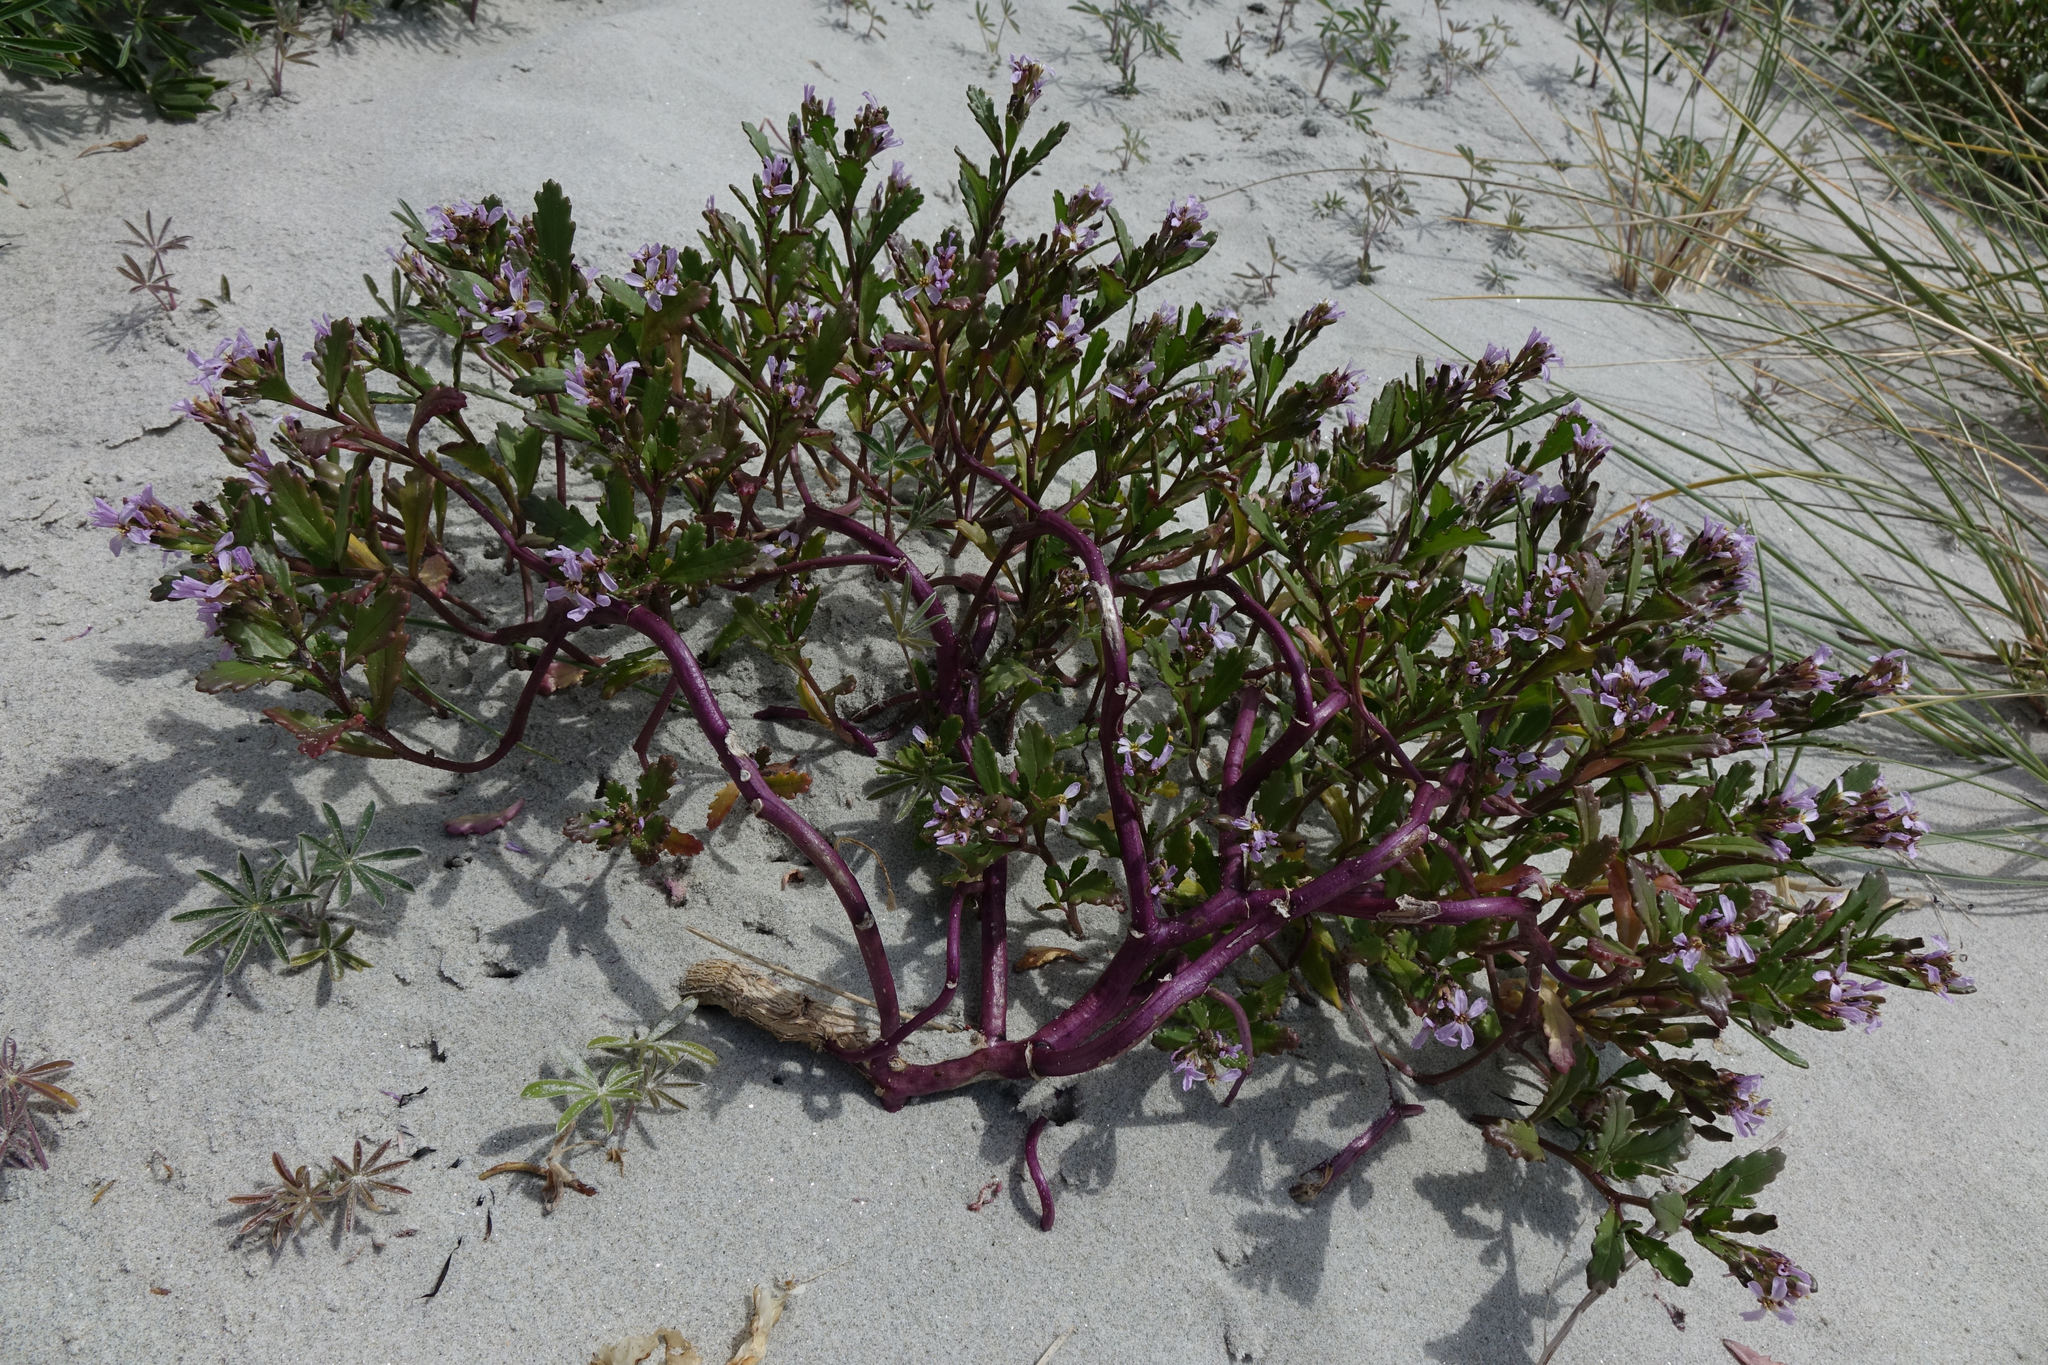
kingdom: Plantae
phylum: Tracheophyta
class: Magnoliopsida
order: Brassicales
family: Brassicaceae
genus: Cakile
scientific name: Cakile edentula
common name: American sea rocket
